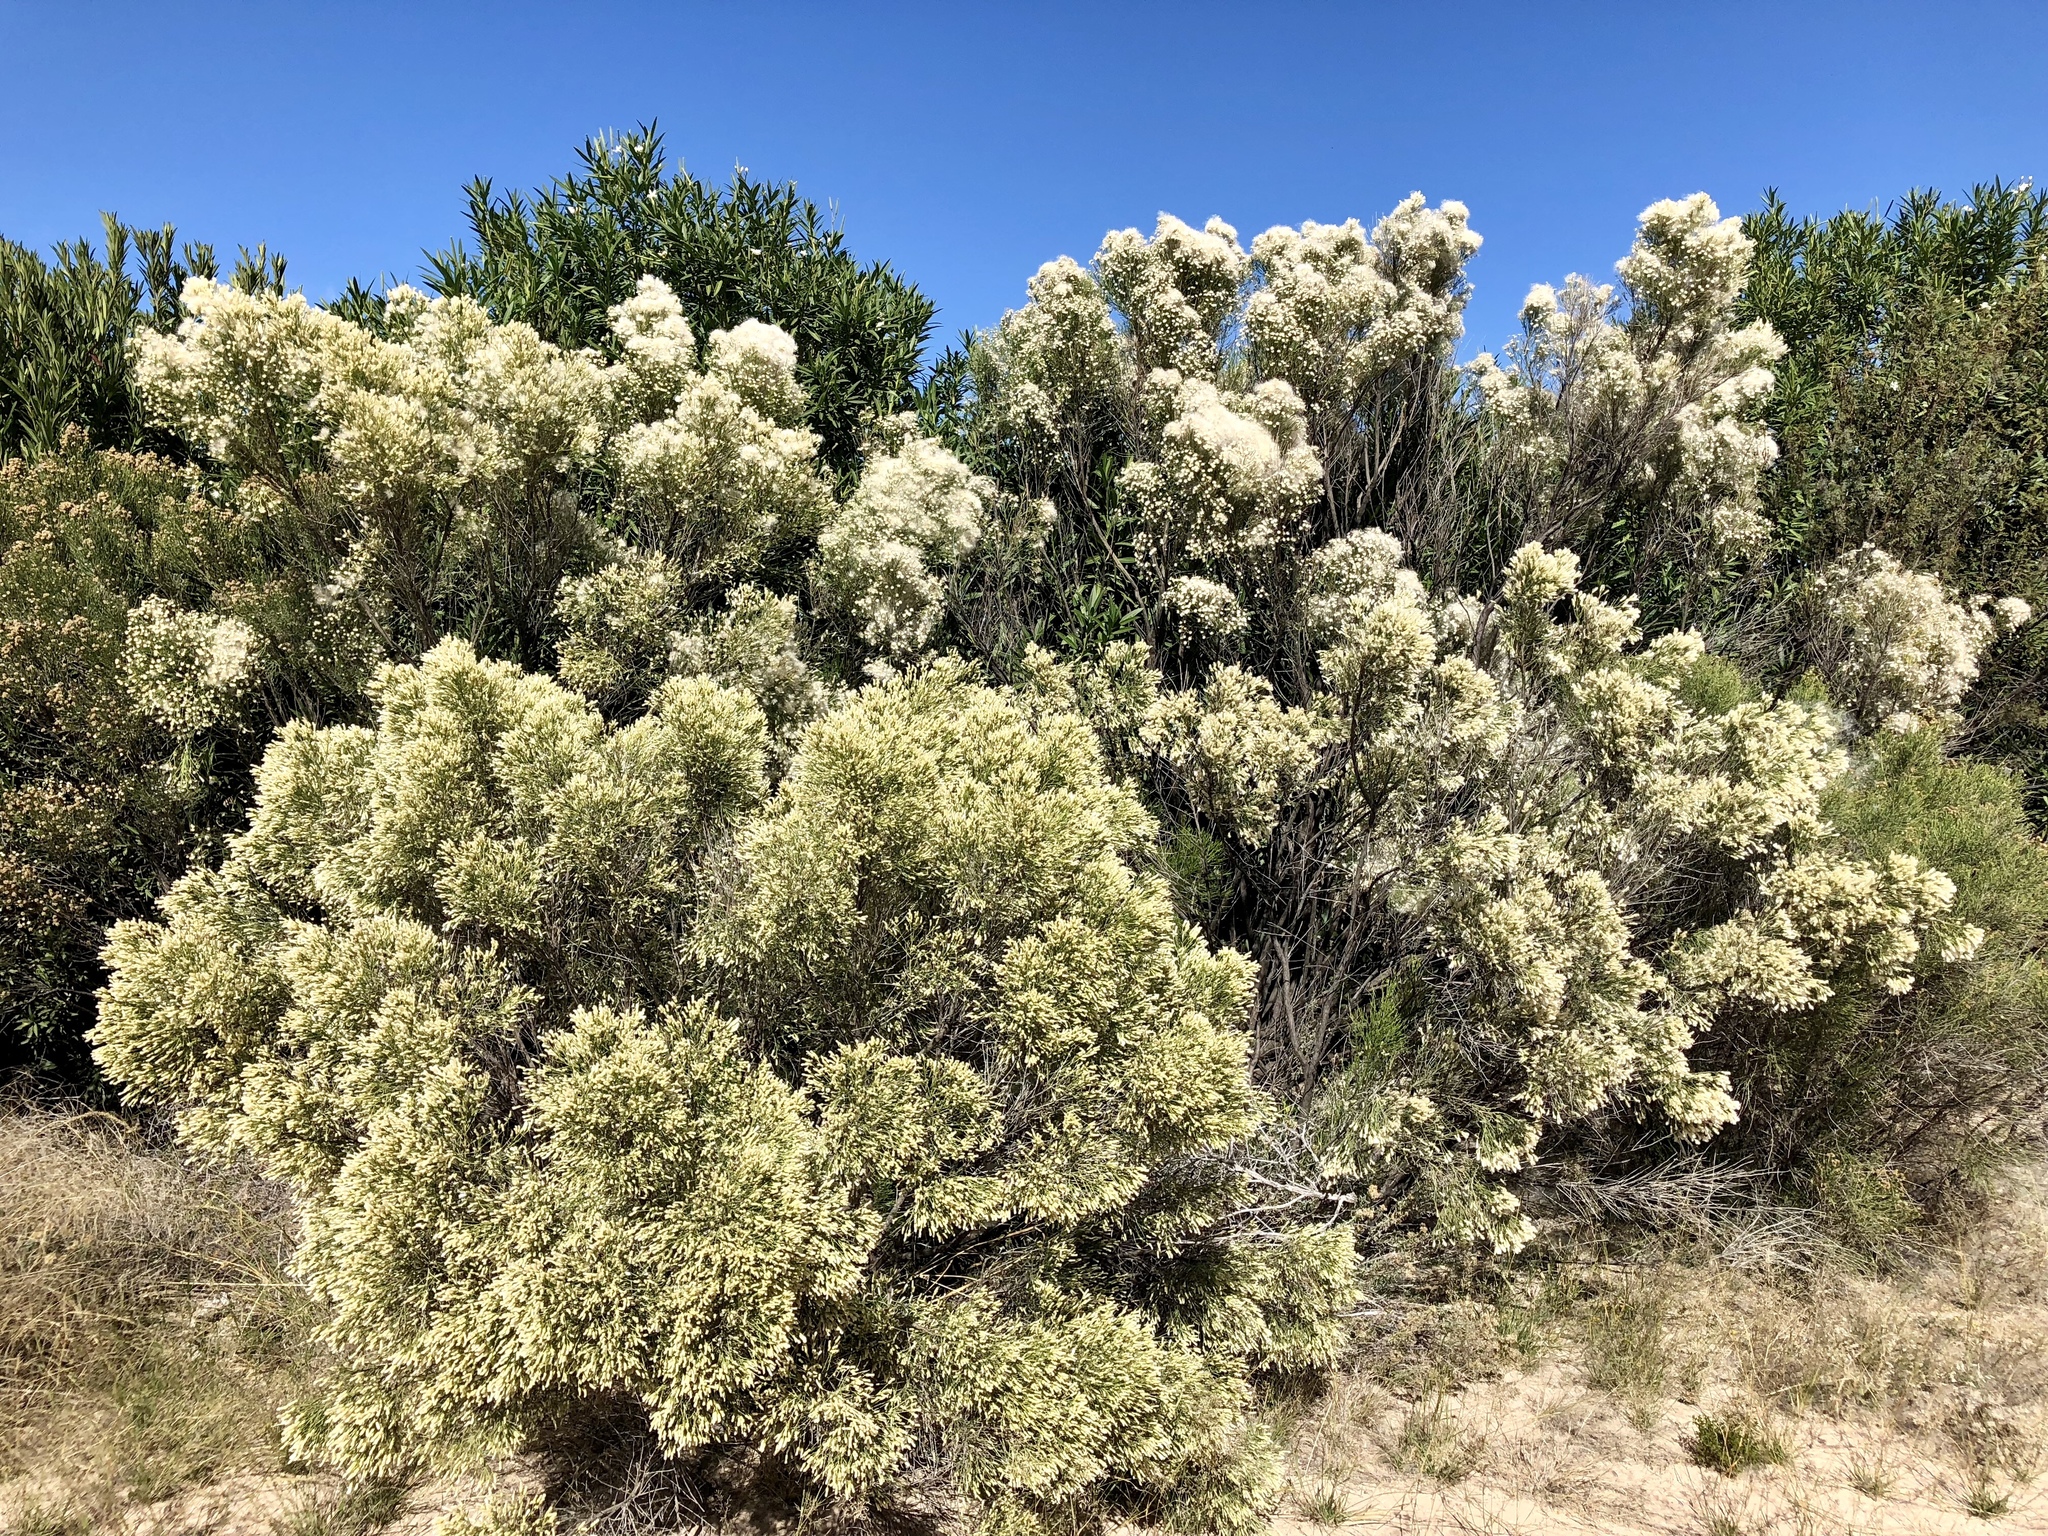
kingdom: Plantae
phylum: Tracheophyta
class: Magnoliopsida
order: Asterales
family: Asteraceae
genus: Baccharis
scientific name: Baccharis sarothroides
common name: Desert-broom
